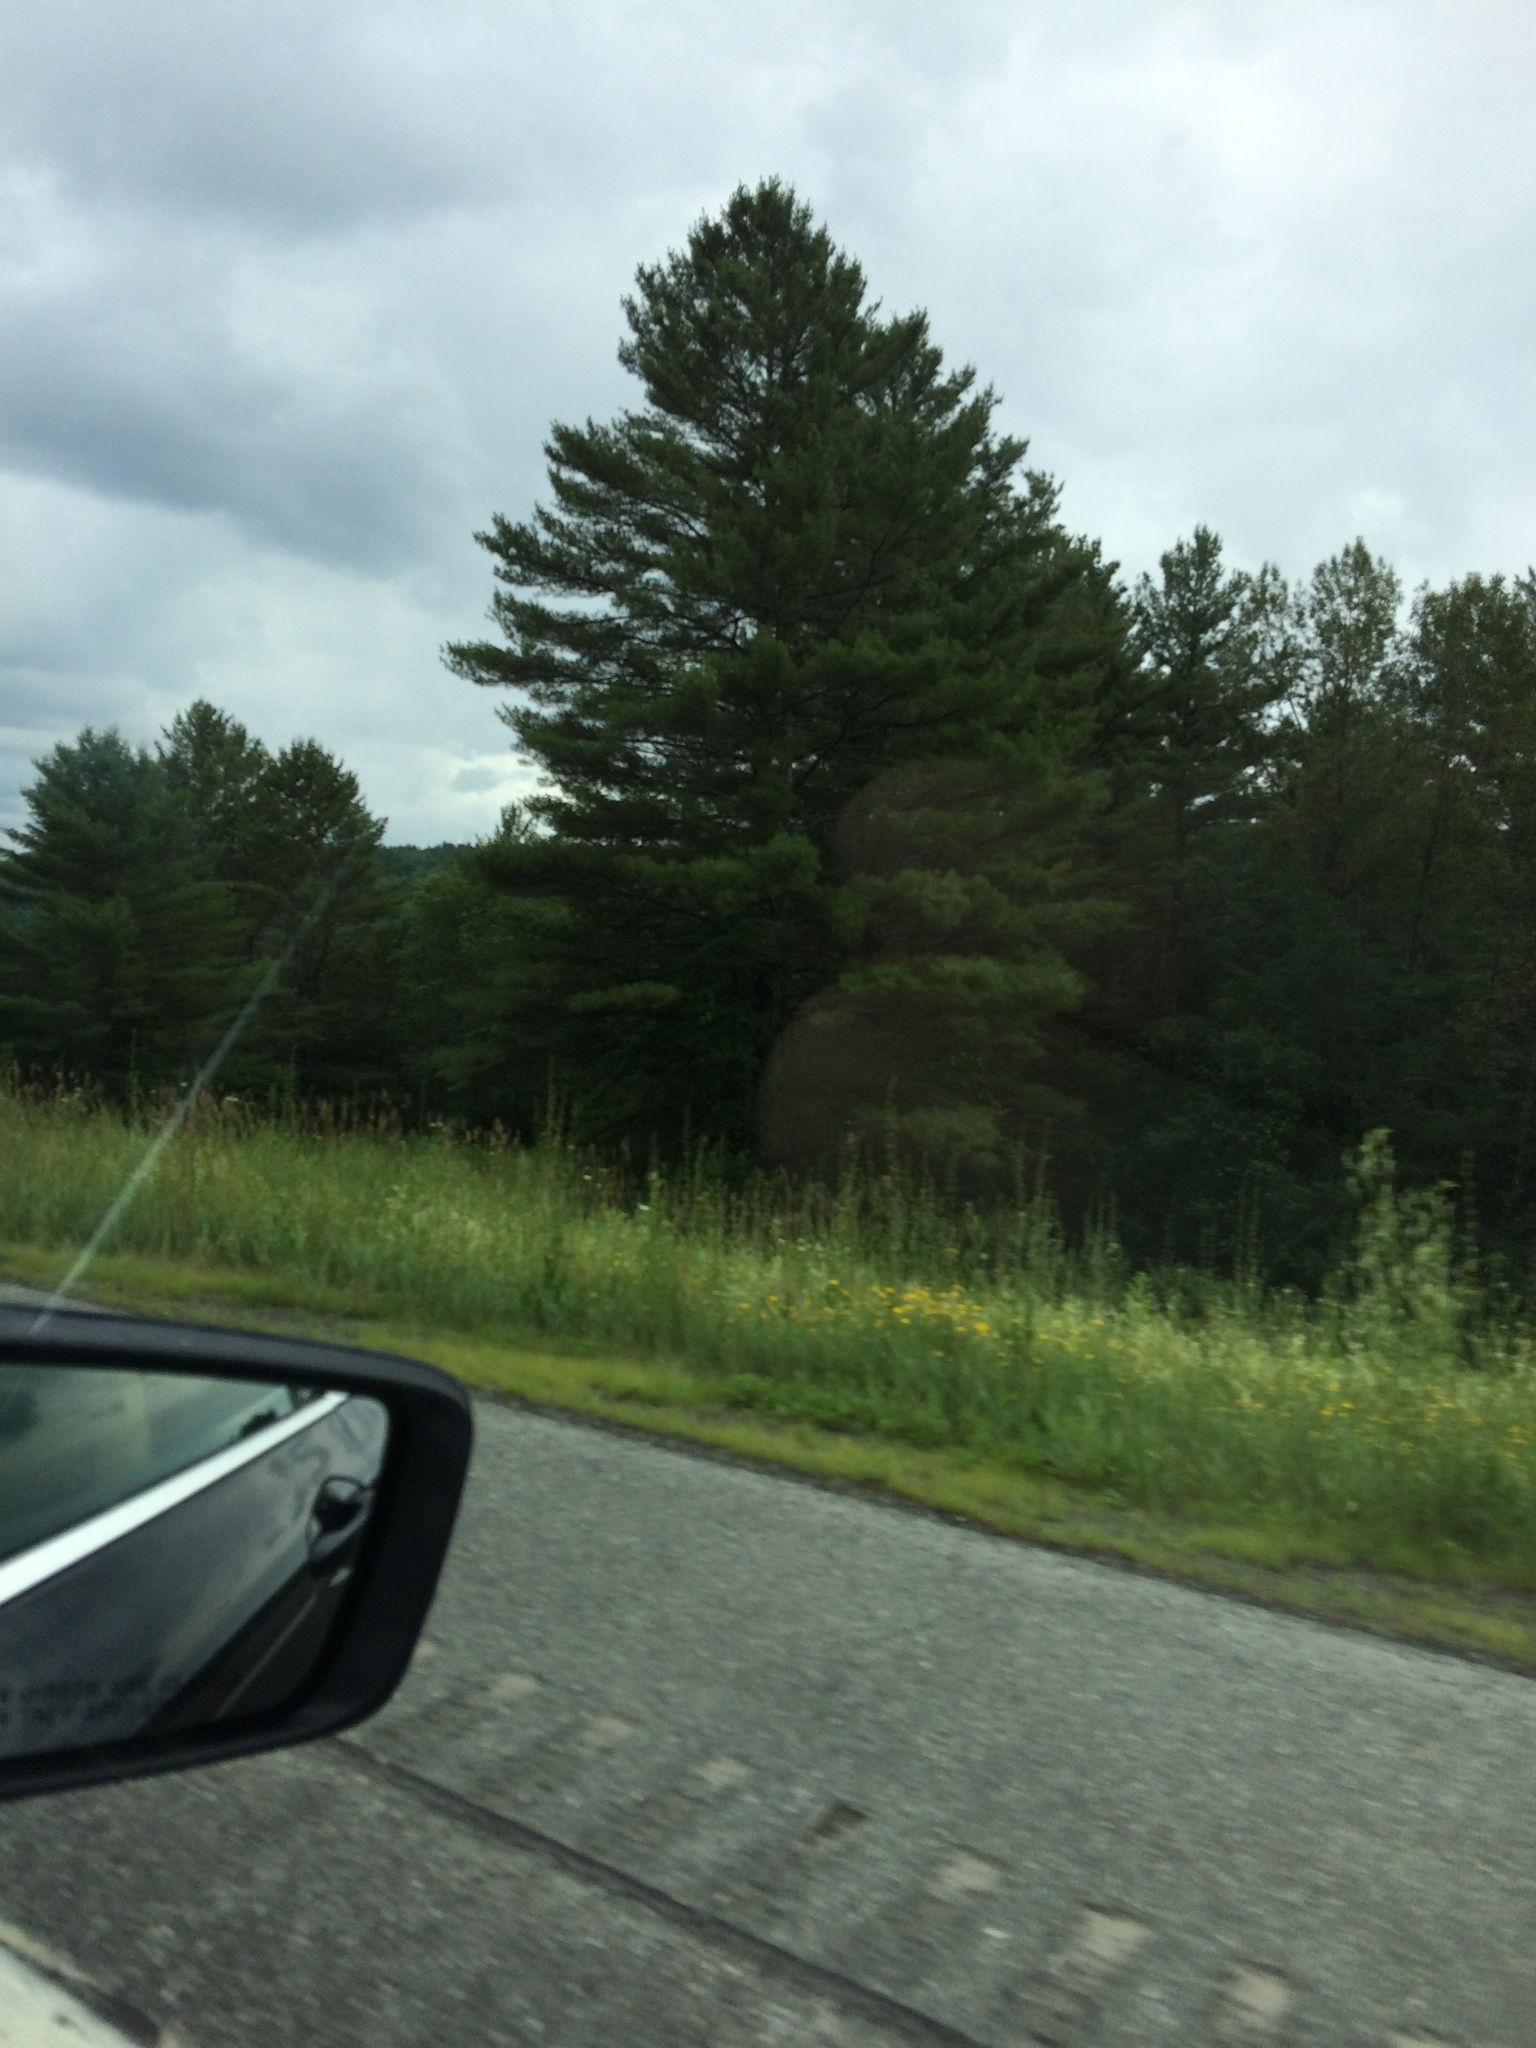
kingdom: Plantae
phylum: Tracheophyta
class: Pinopsida
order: Pinales
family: Pinaceae
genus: Pinus
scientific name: Pinus strobus
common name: Weymouth pine
